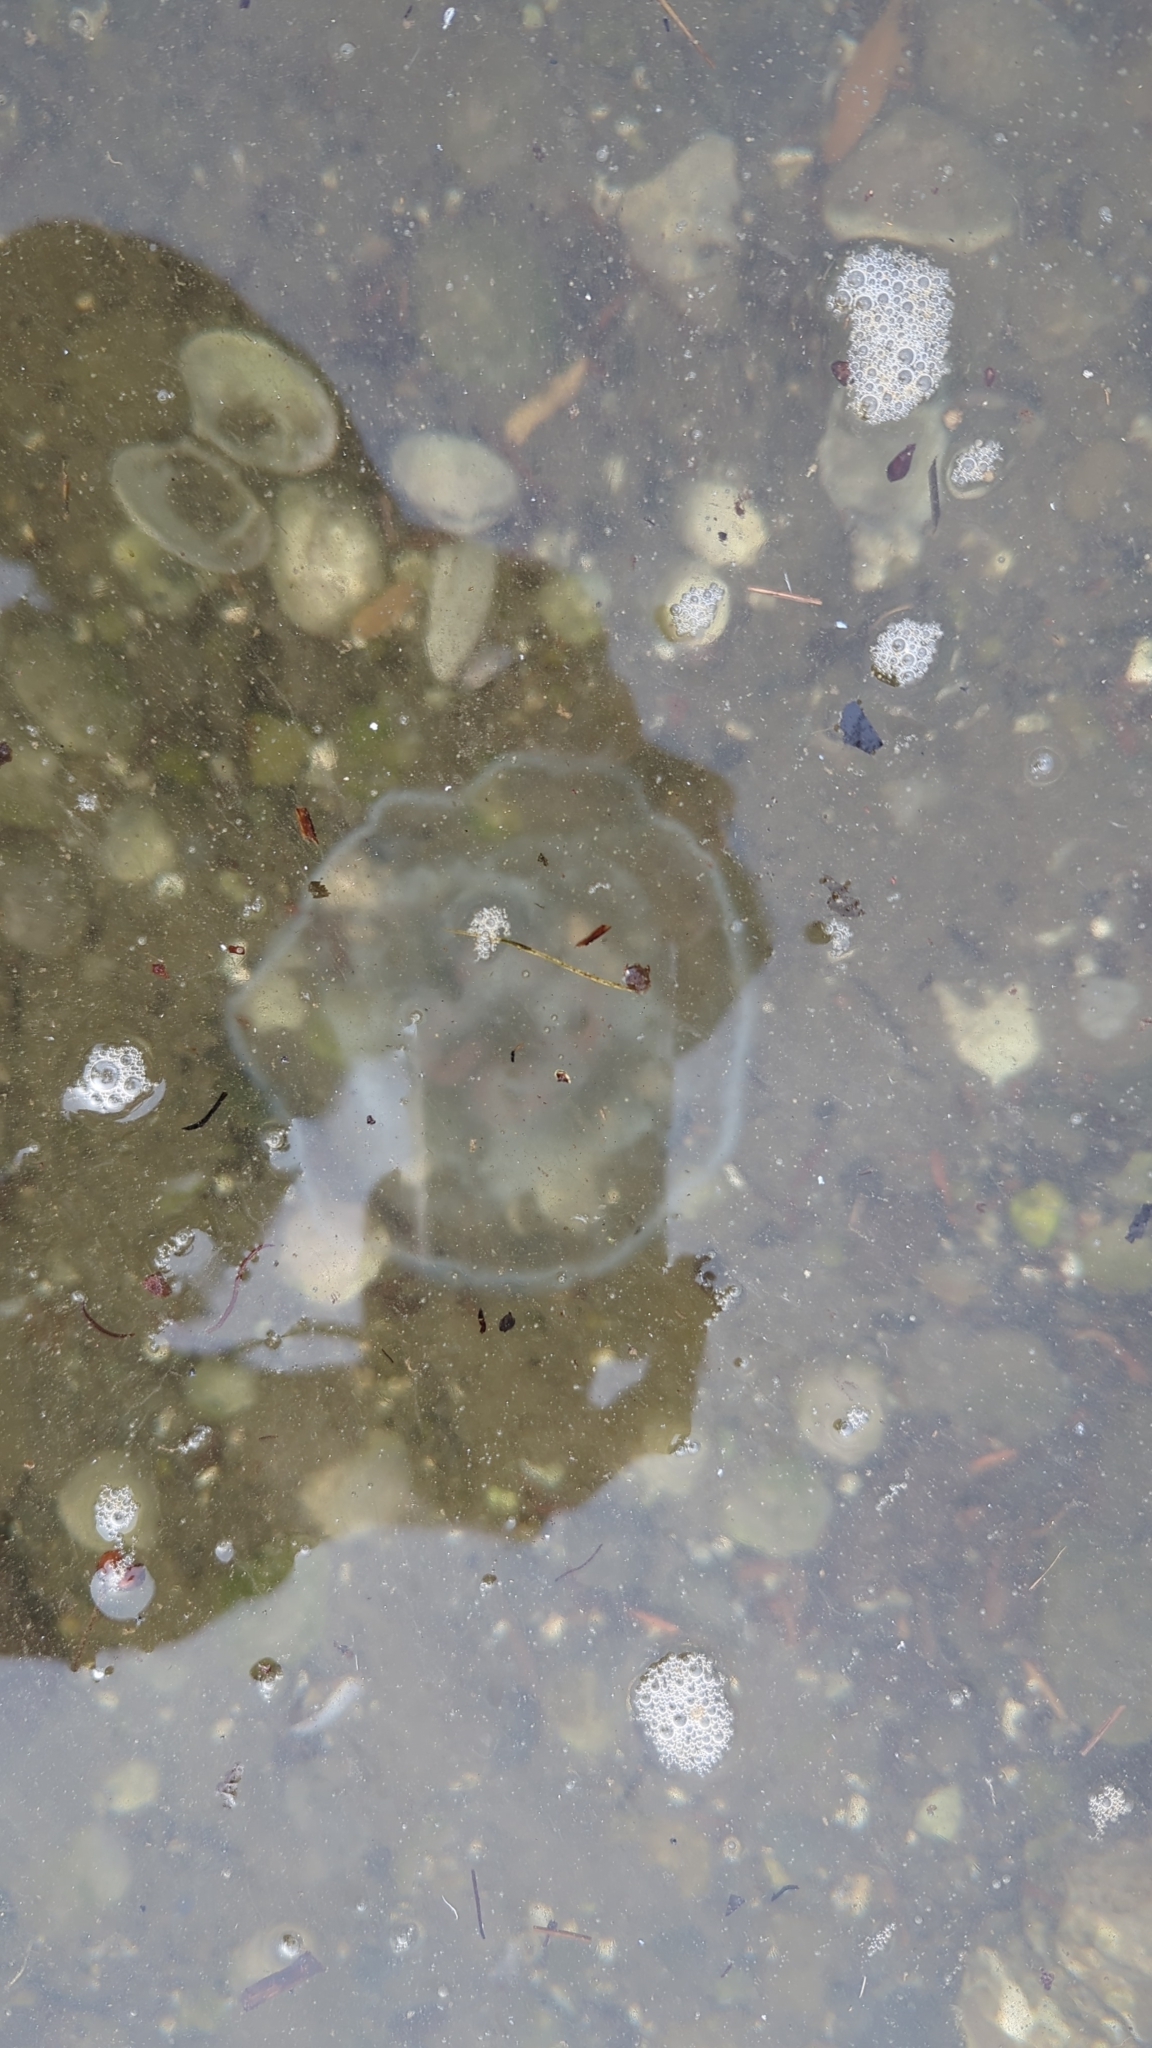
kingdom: Animalia
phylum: Cnidaria
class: Scyphozoa
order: Semaeostomeae
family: Ulmaridae
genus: Aurelia
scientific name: Aurelia labiata
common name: Pacific moon jelly
